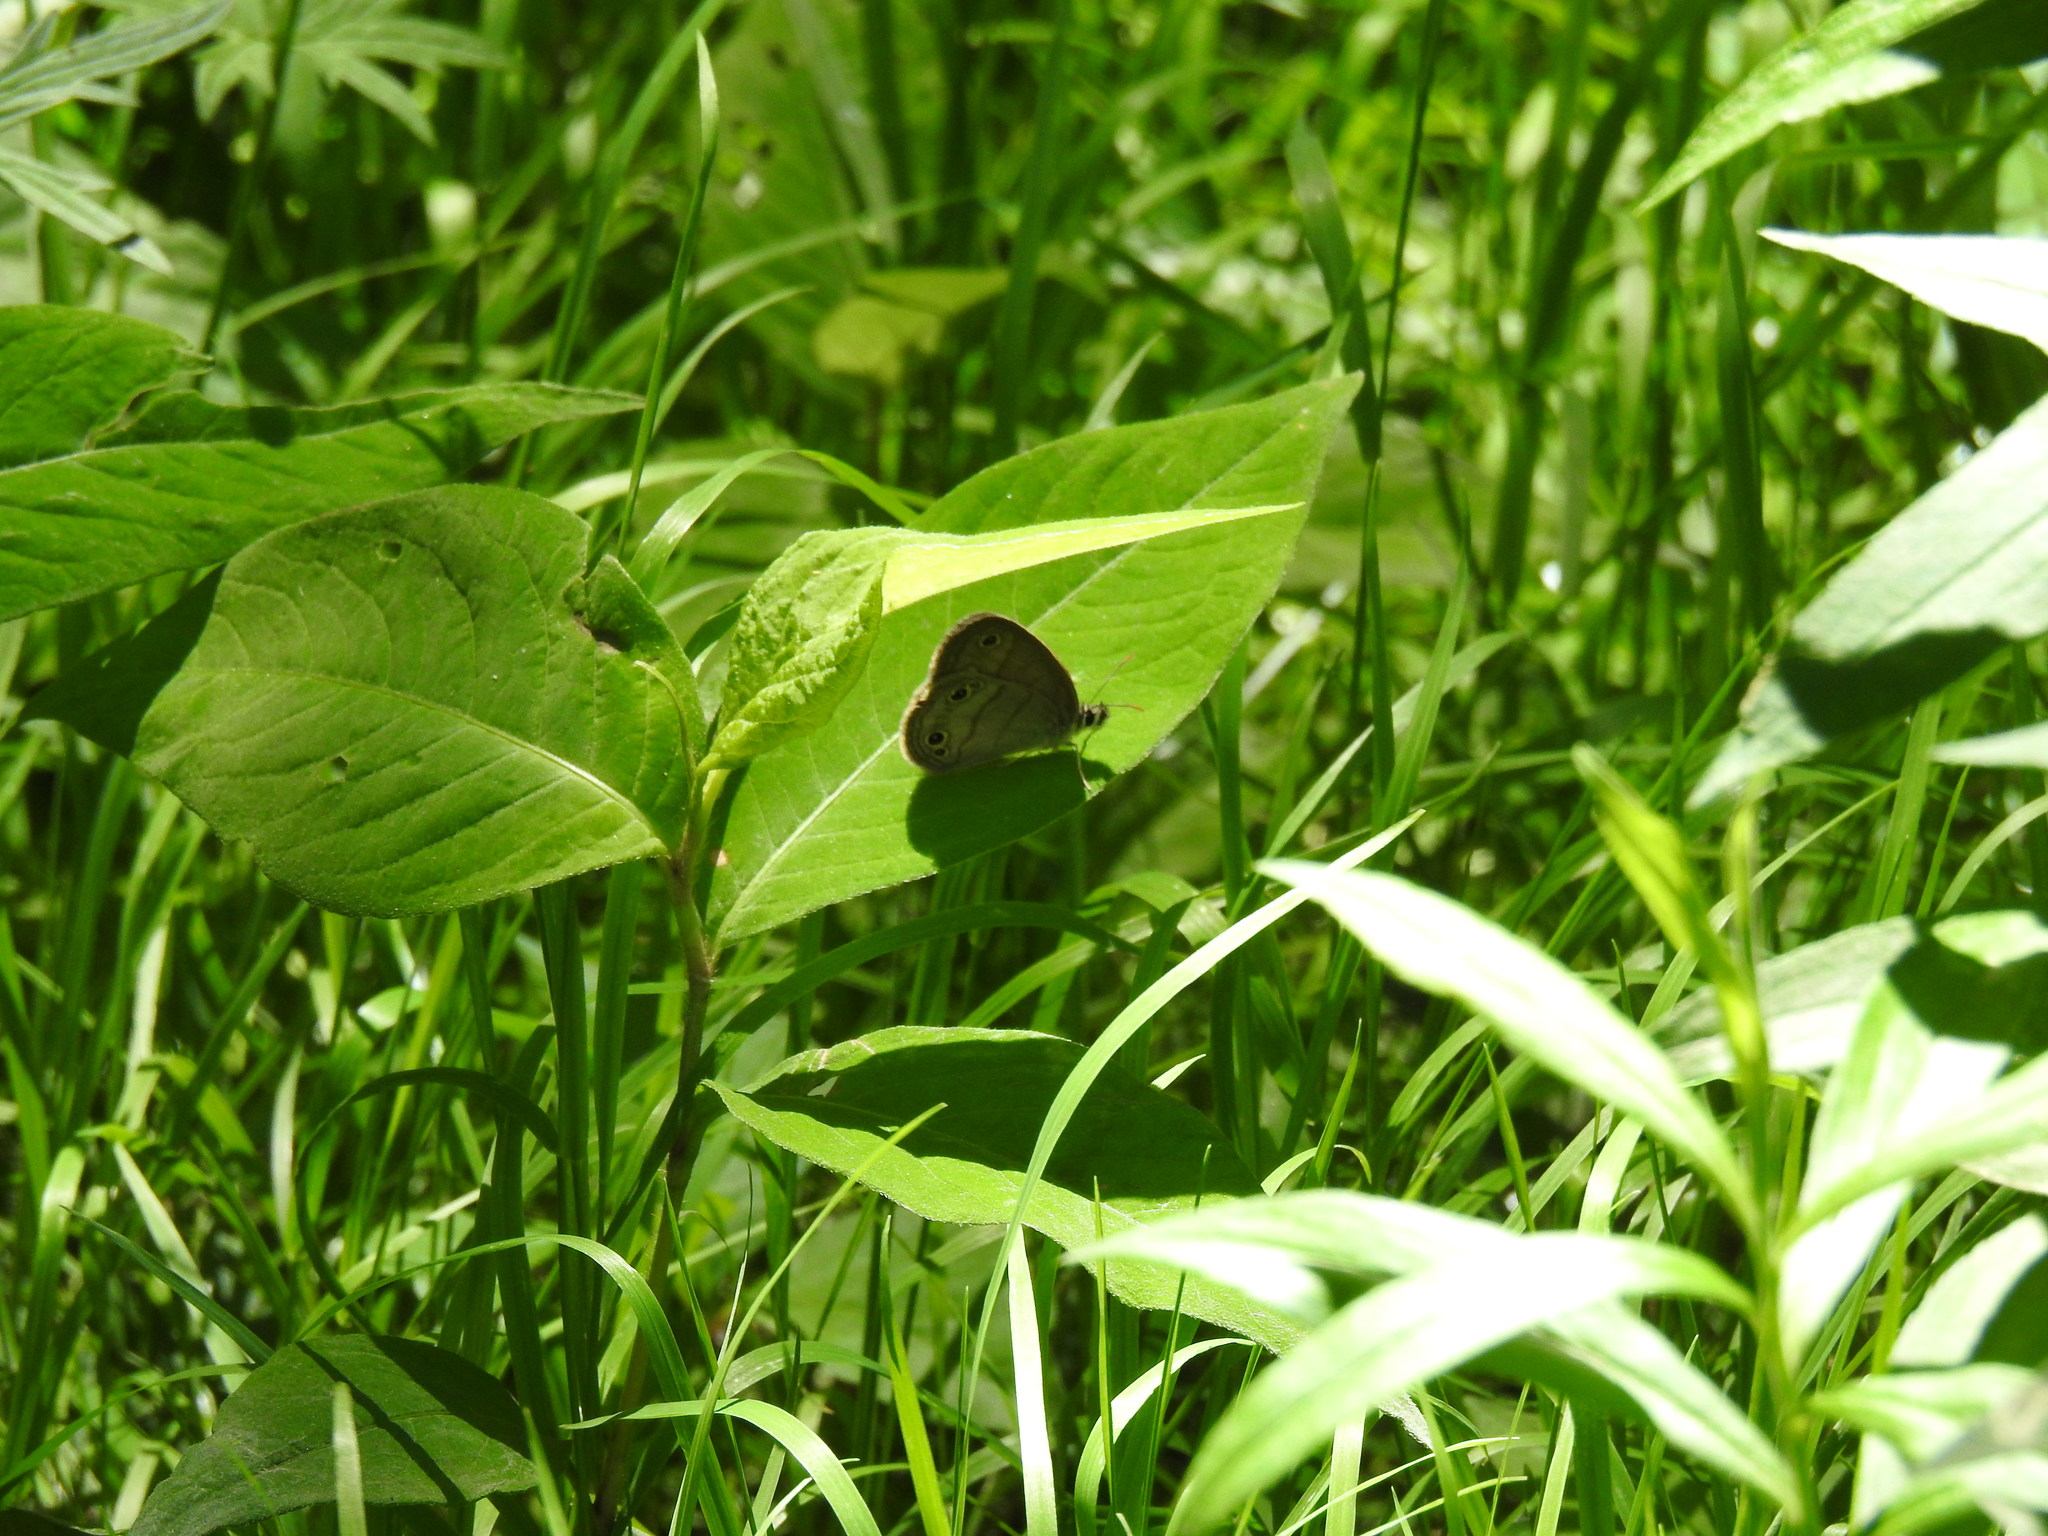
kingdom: Animalia
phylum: Arthropoda
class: Insecta
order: Lepidoptera
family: Nymphalidae
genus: Euptychia
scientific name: Euptychia cymela
